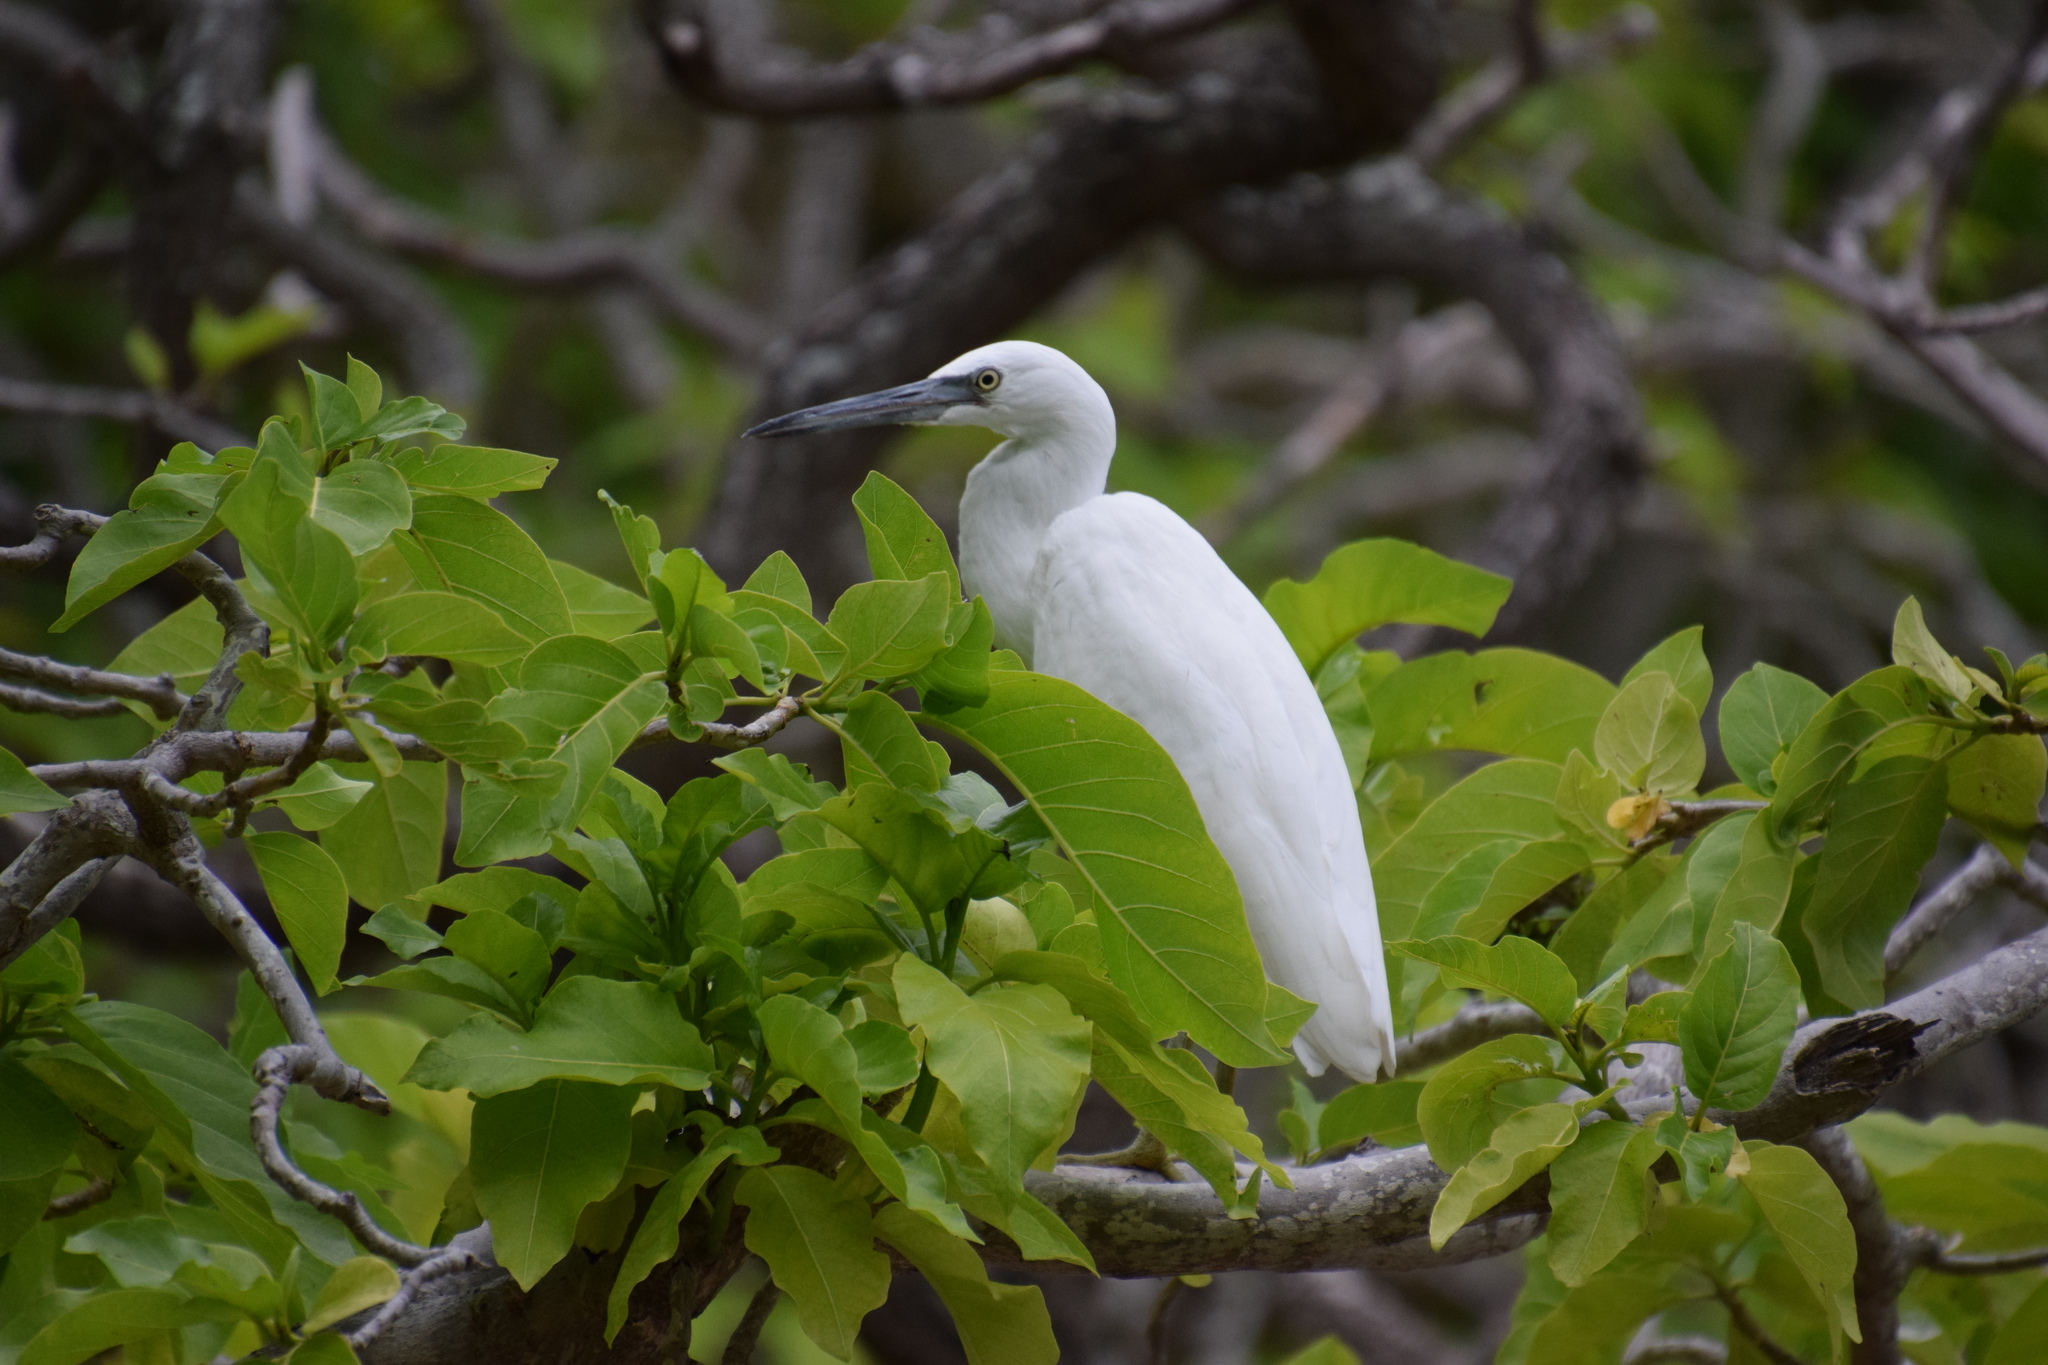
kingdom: Animalia
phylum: Chordata
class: Aves
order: Pelecaniformes
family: Ardeidae
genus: Egretta
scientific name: Egretta sacra
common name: Pacific reef heron
